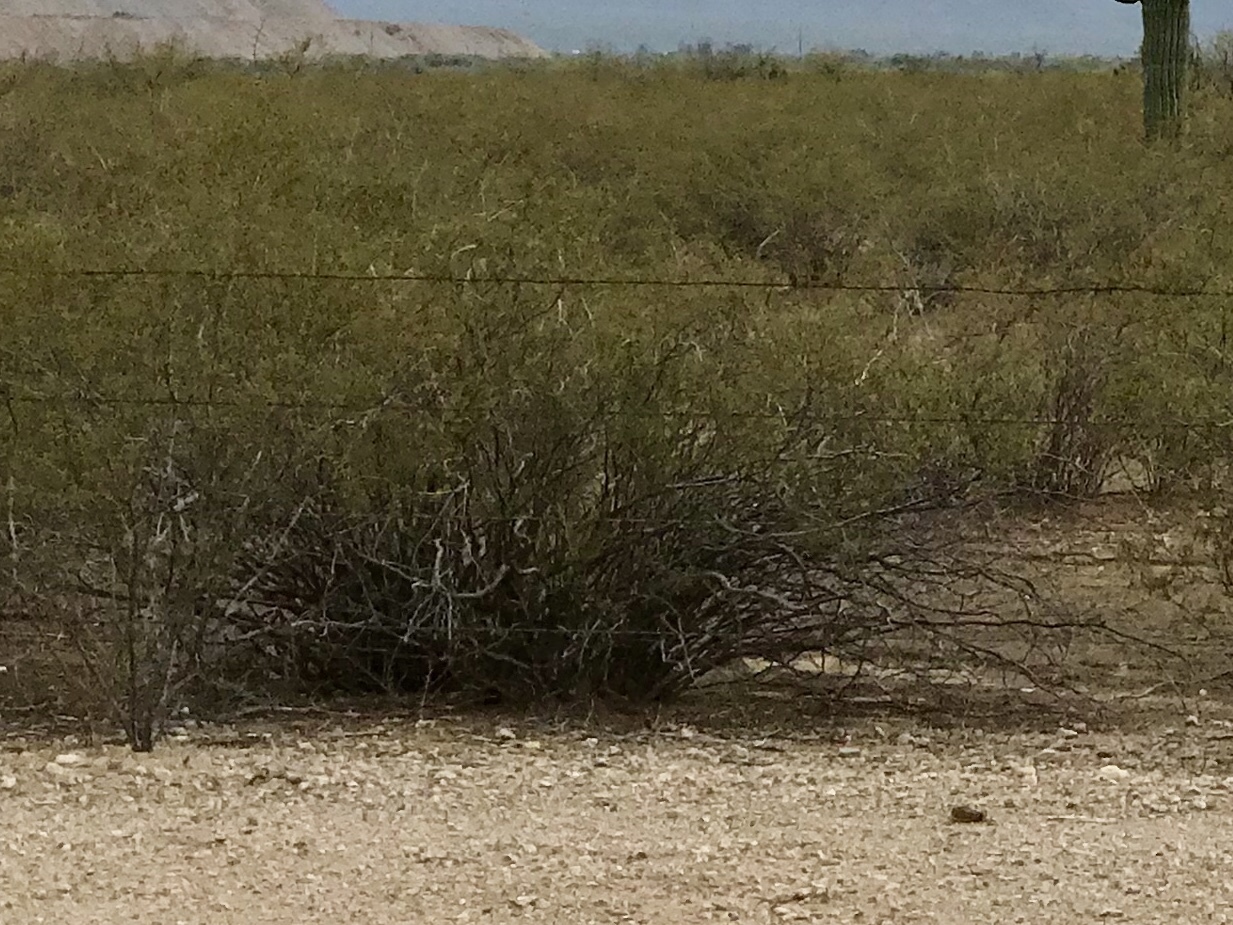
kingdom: Plantae
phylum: Tracheophyta
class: Magnoliopsida
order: Zygophyllales
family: Zygophyllaceae
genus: Larrea
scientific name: Larrea tridentata
